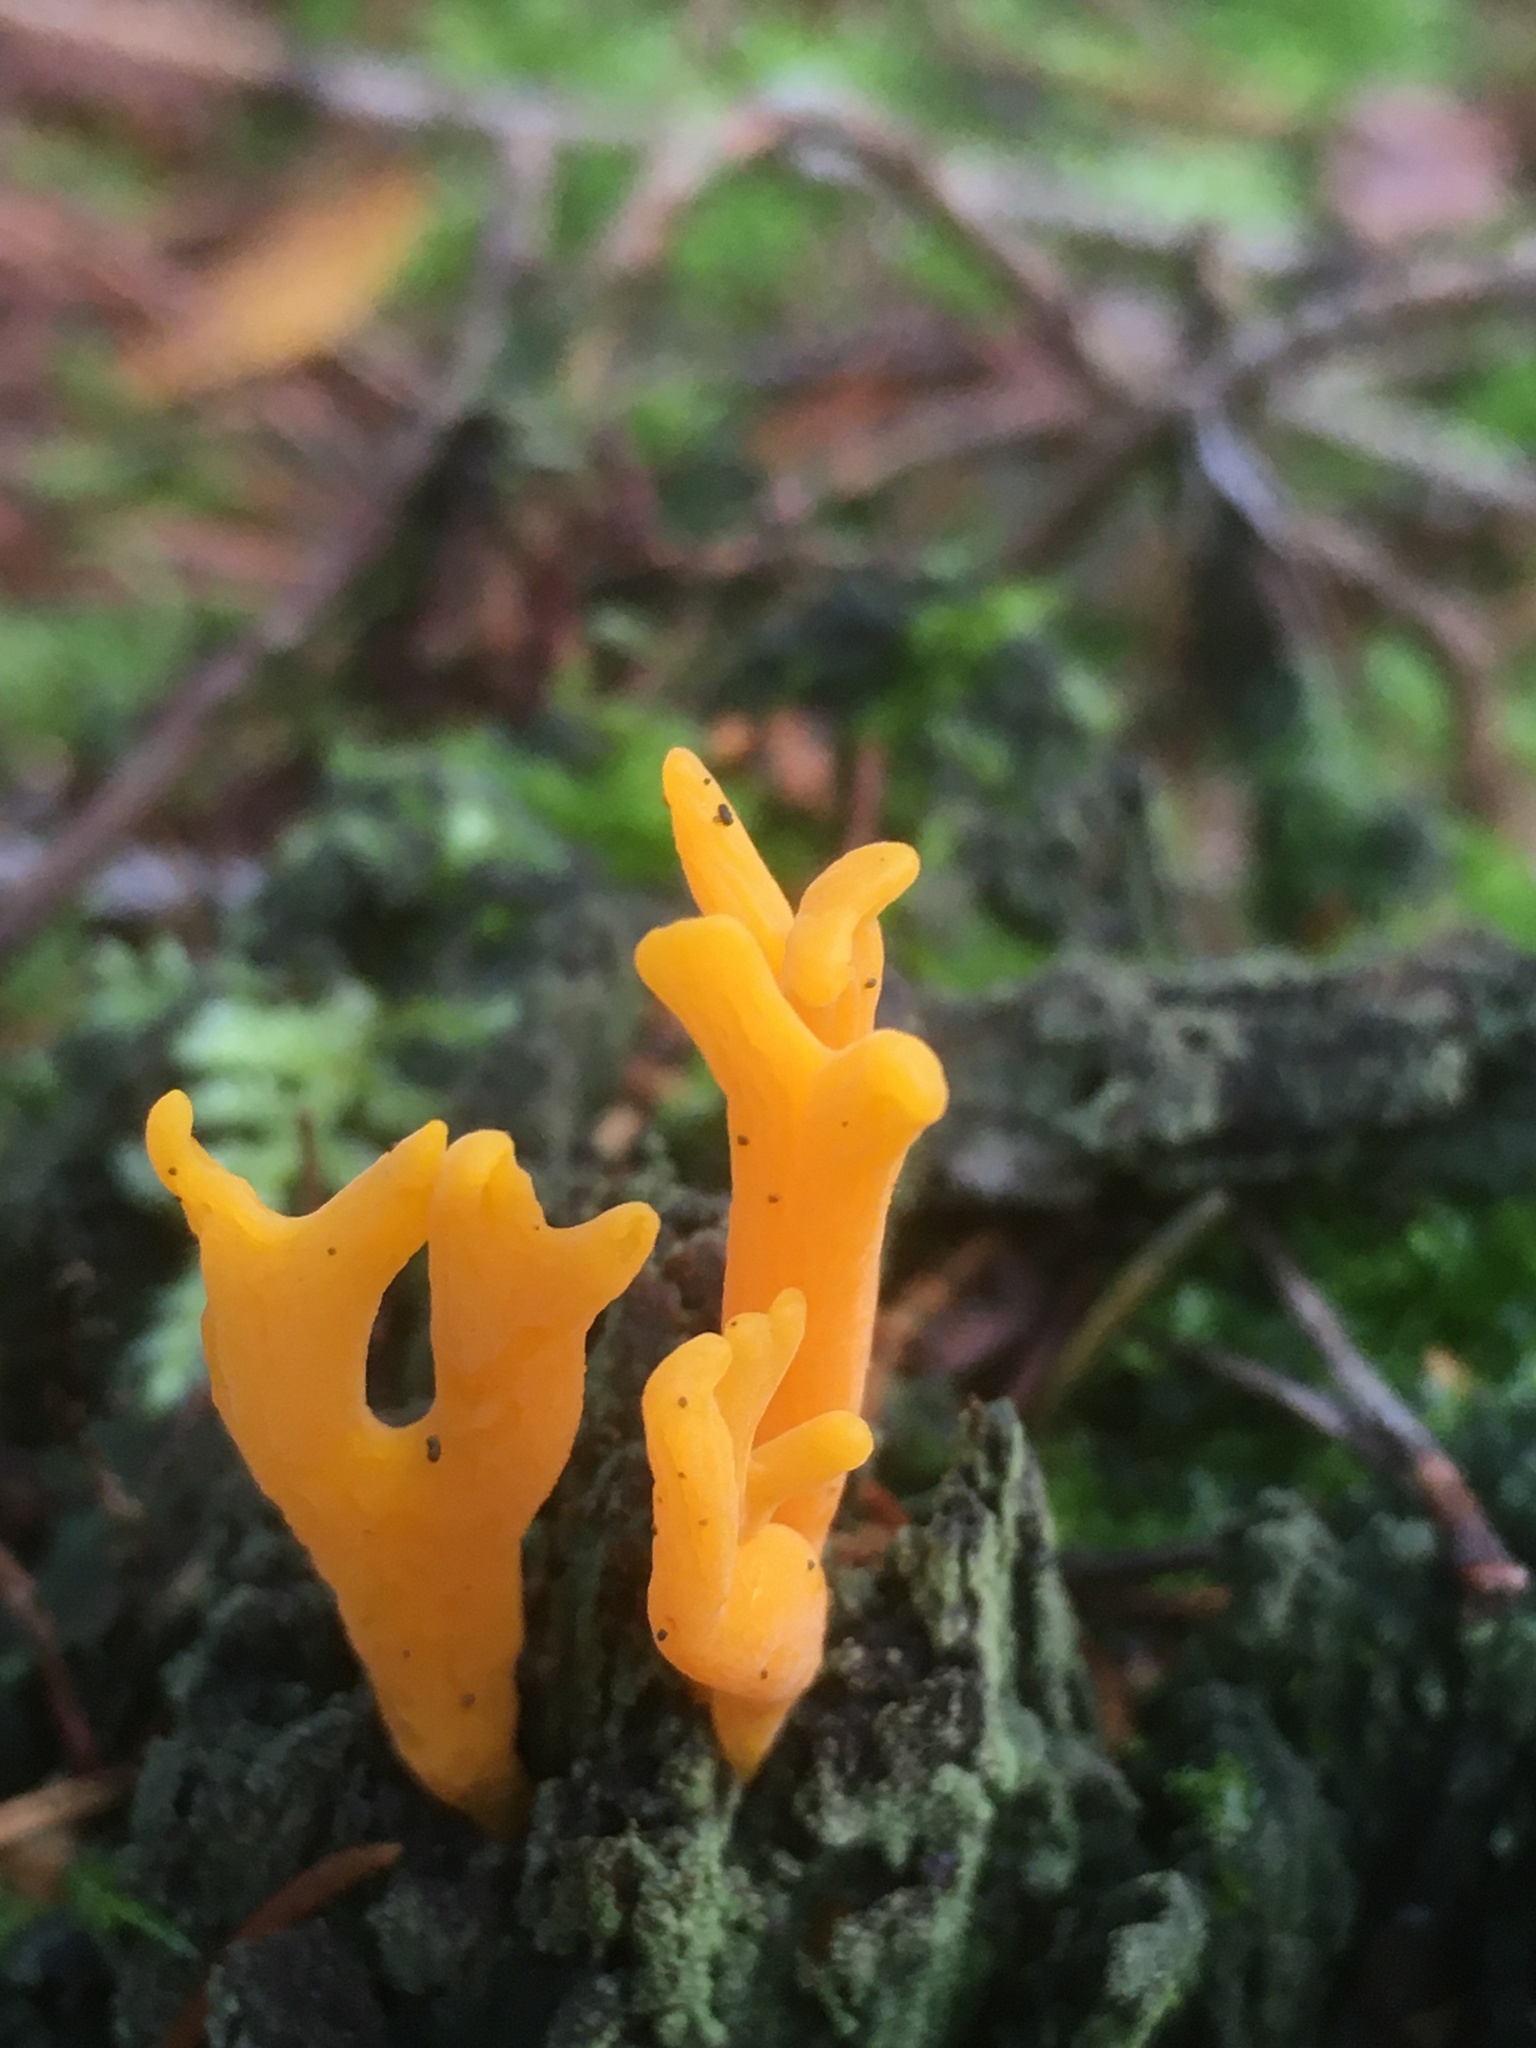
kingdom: Fungi
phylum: Basidiomycota
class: Dacrymycetes
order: Dacrymycetales
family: Dacrymycetaceae
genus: Calocera
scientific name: Calocera viscosa
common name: Yellow stagshorn
